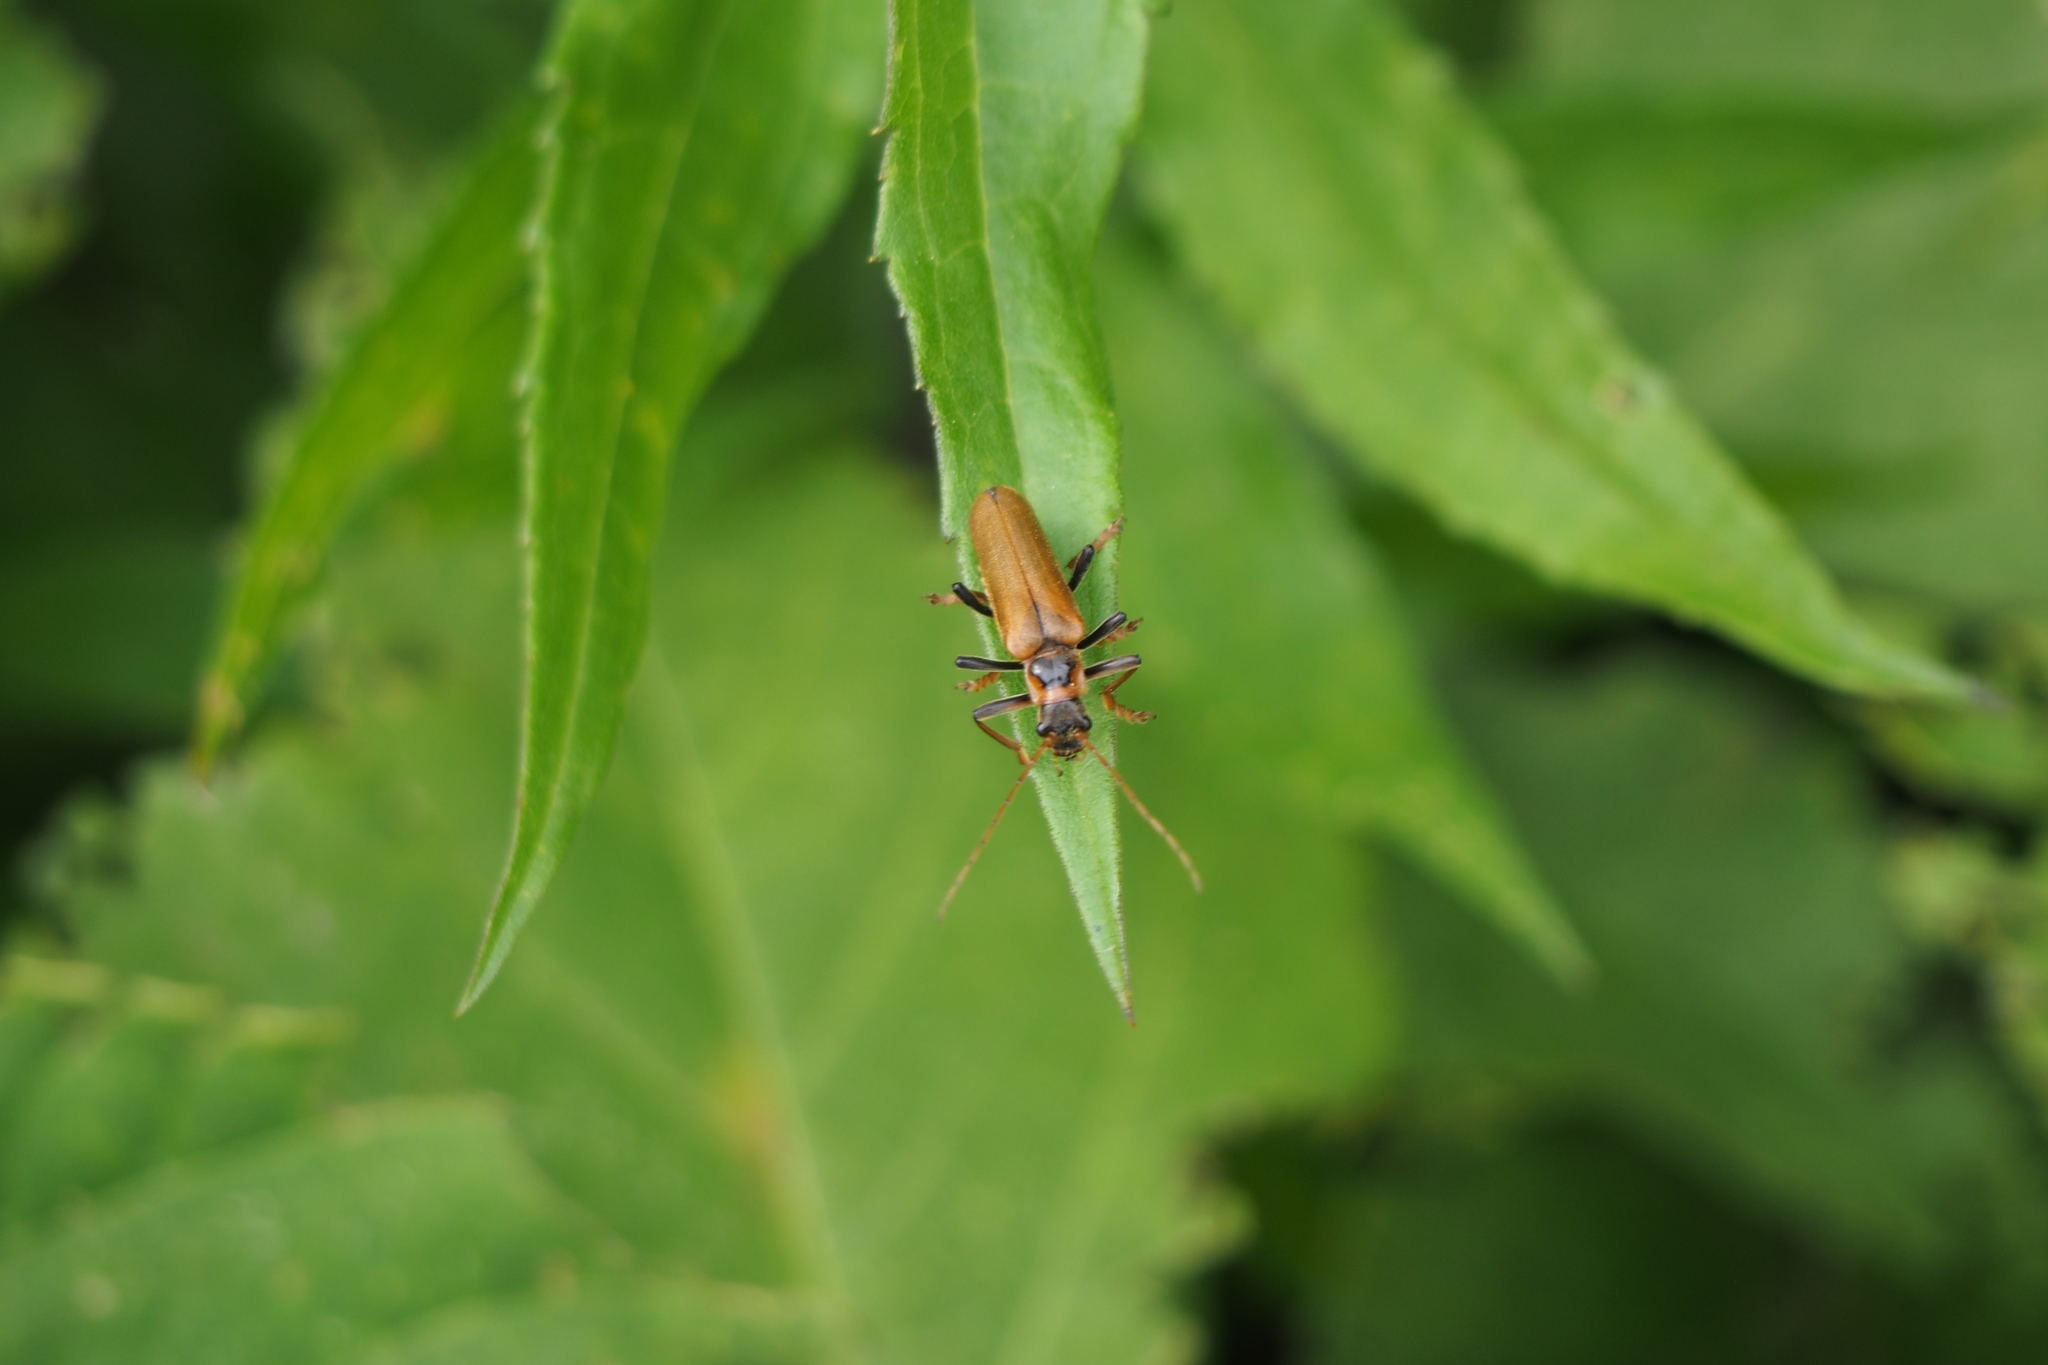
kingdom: Animalia
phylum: Arthropoda
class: Insecta
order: Coleoptera
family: Cantharidae
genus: Lycocerus
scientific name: Lycocerus suturellus
